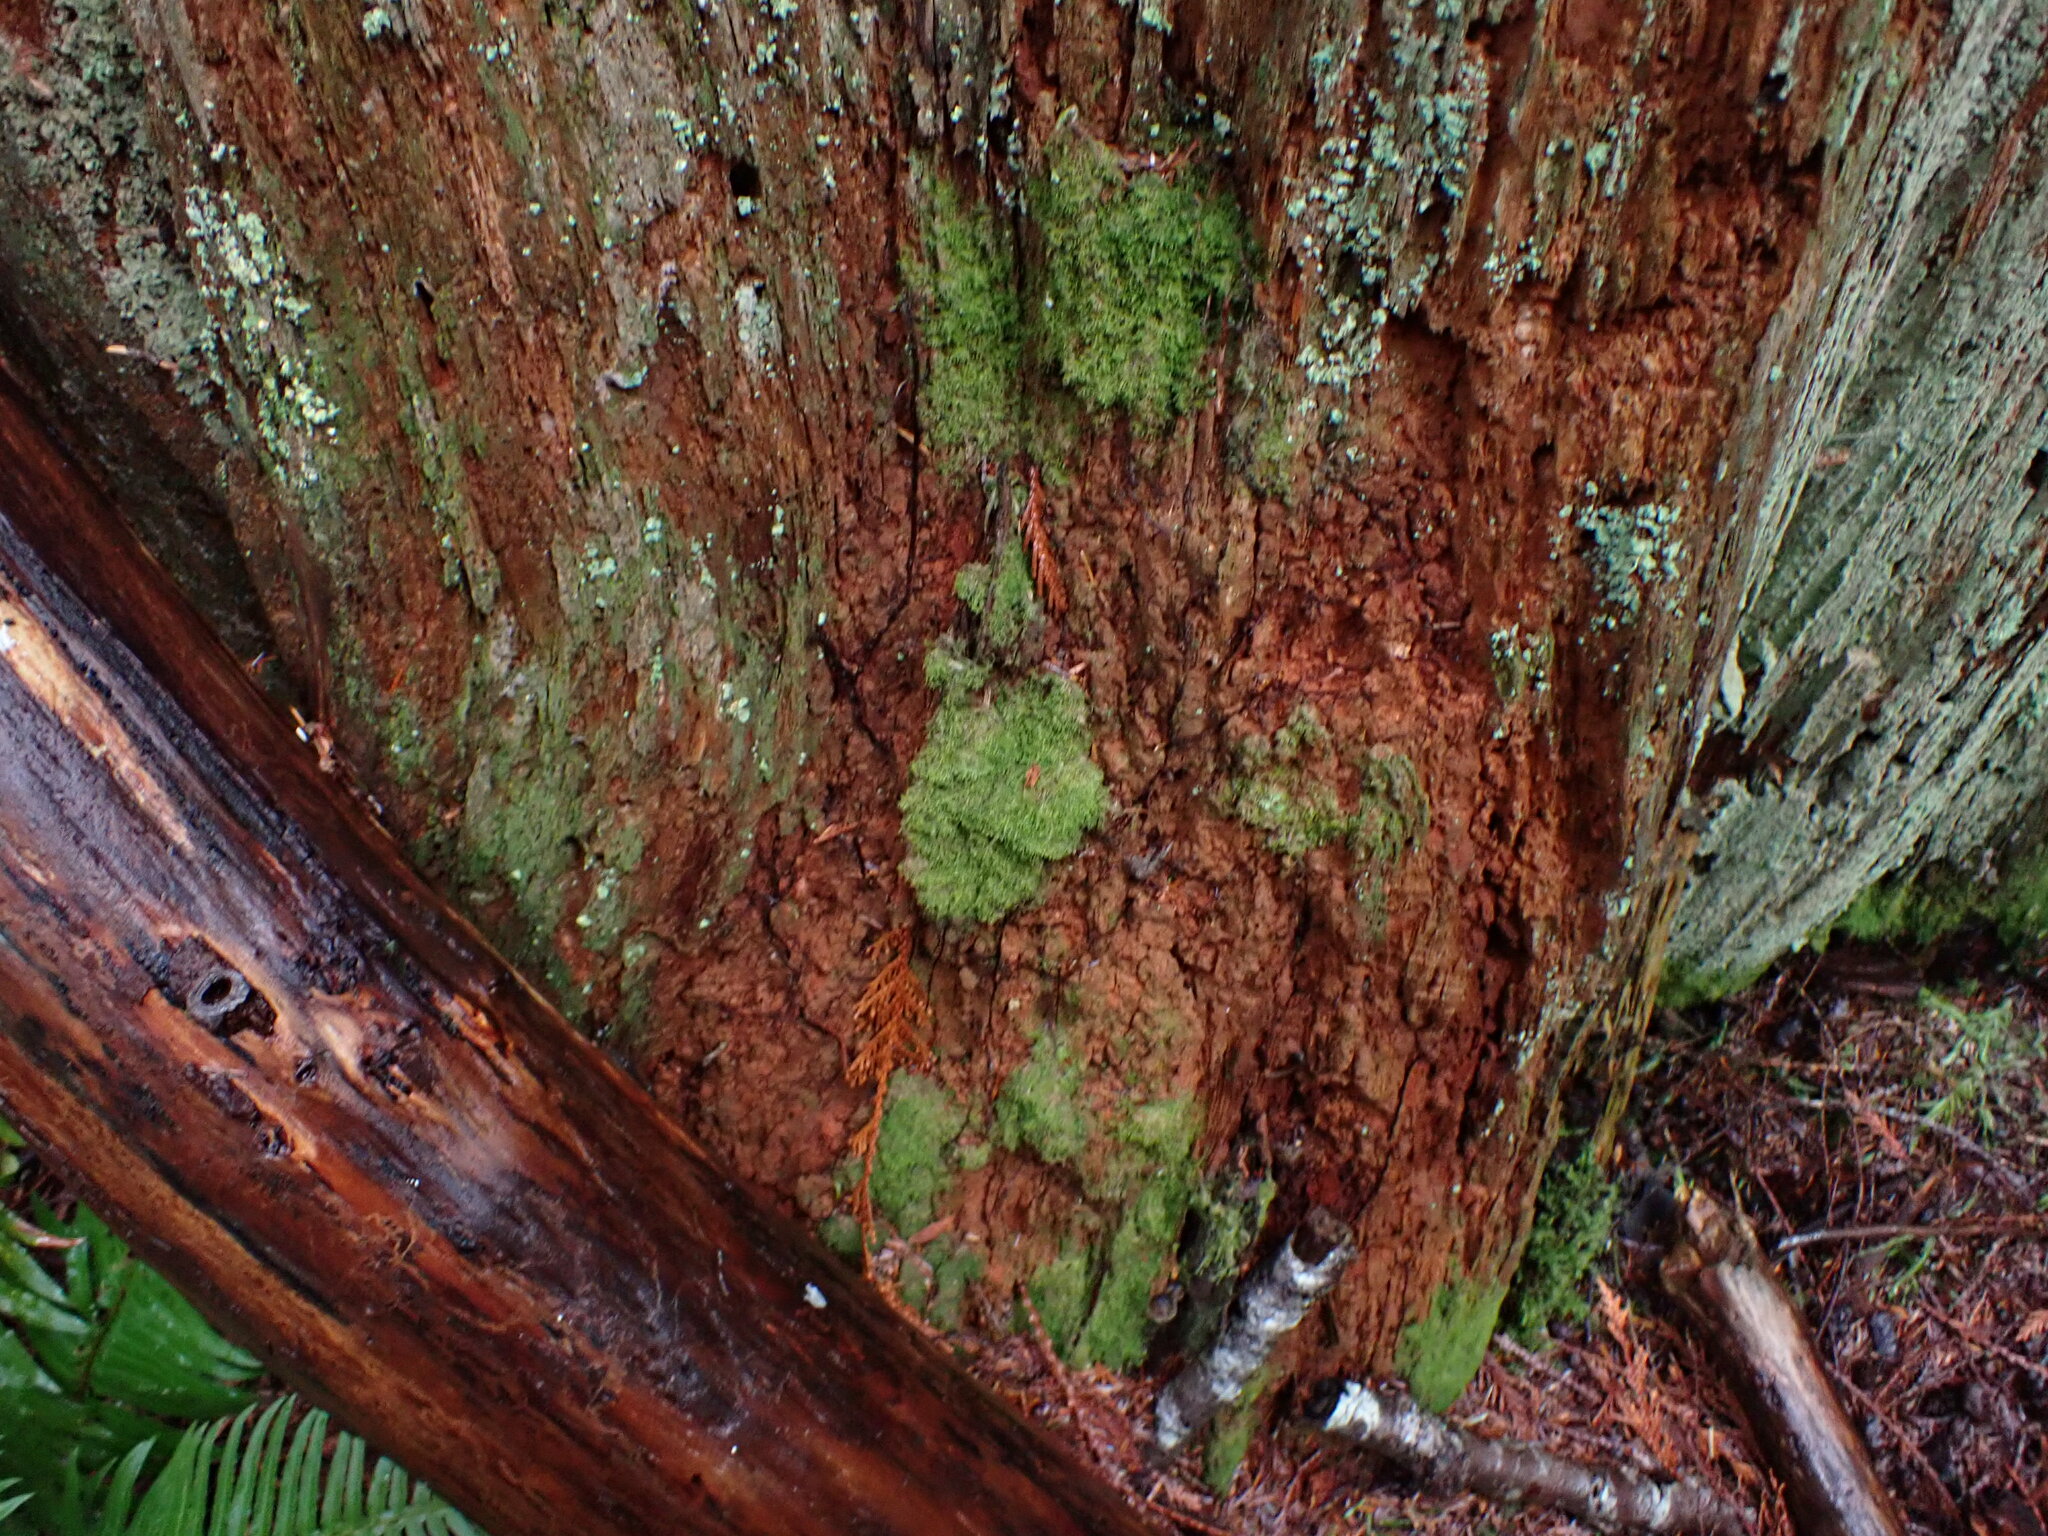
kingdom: Plantae
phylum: Marchantiophyta
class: Jungermanniopsida
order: Jungermanniales
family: Lepidoziaceae
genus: Lepidozia
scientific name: Lepidozia reptans
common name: Creeping fingerwort
